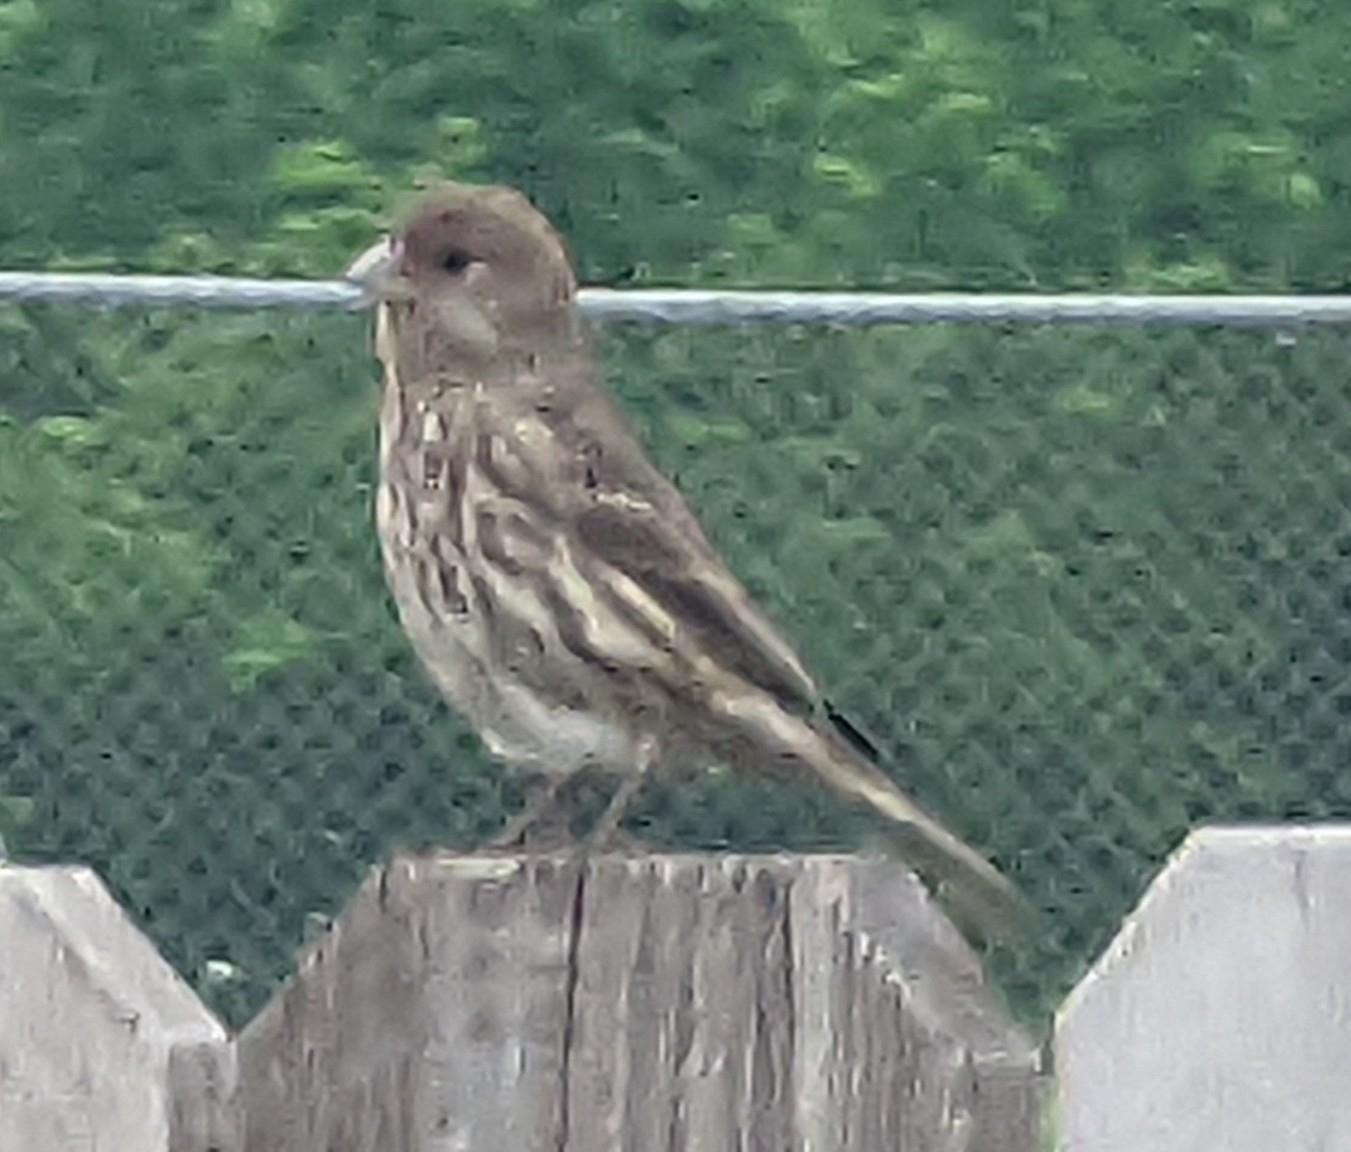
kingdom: Animalia
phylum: Chordata
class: Aves
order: Passeriformes
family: Fringillidae
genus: Haemorhous
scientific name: Haemorhous mexicanus
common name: House finch
